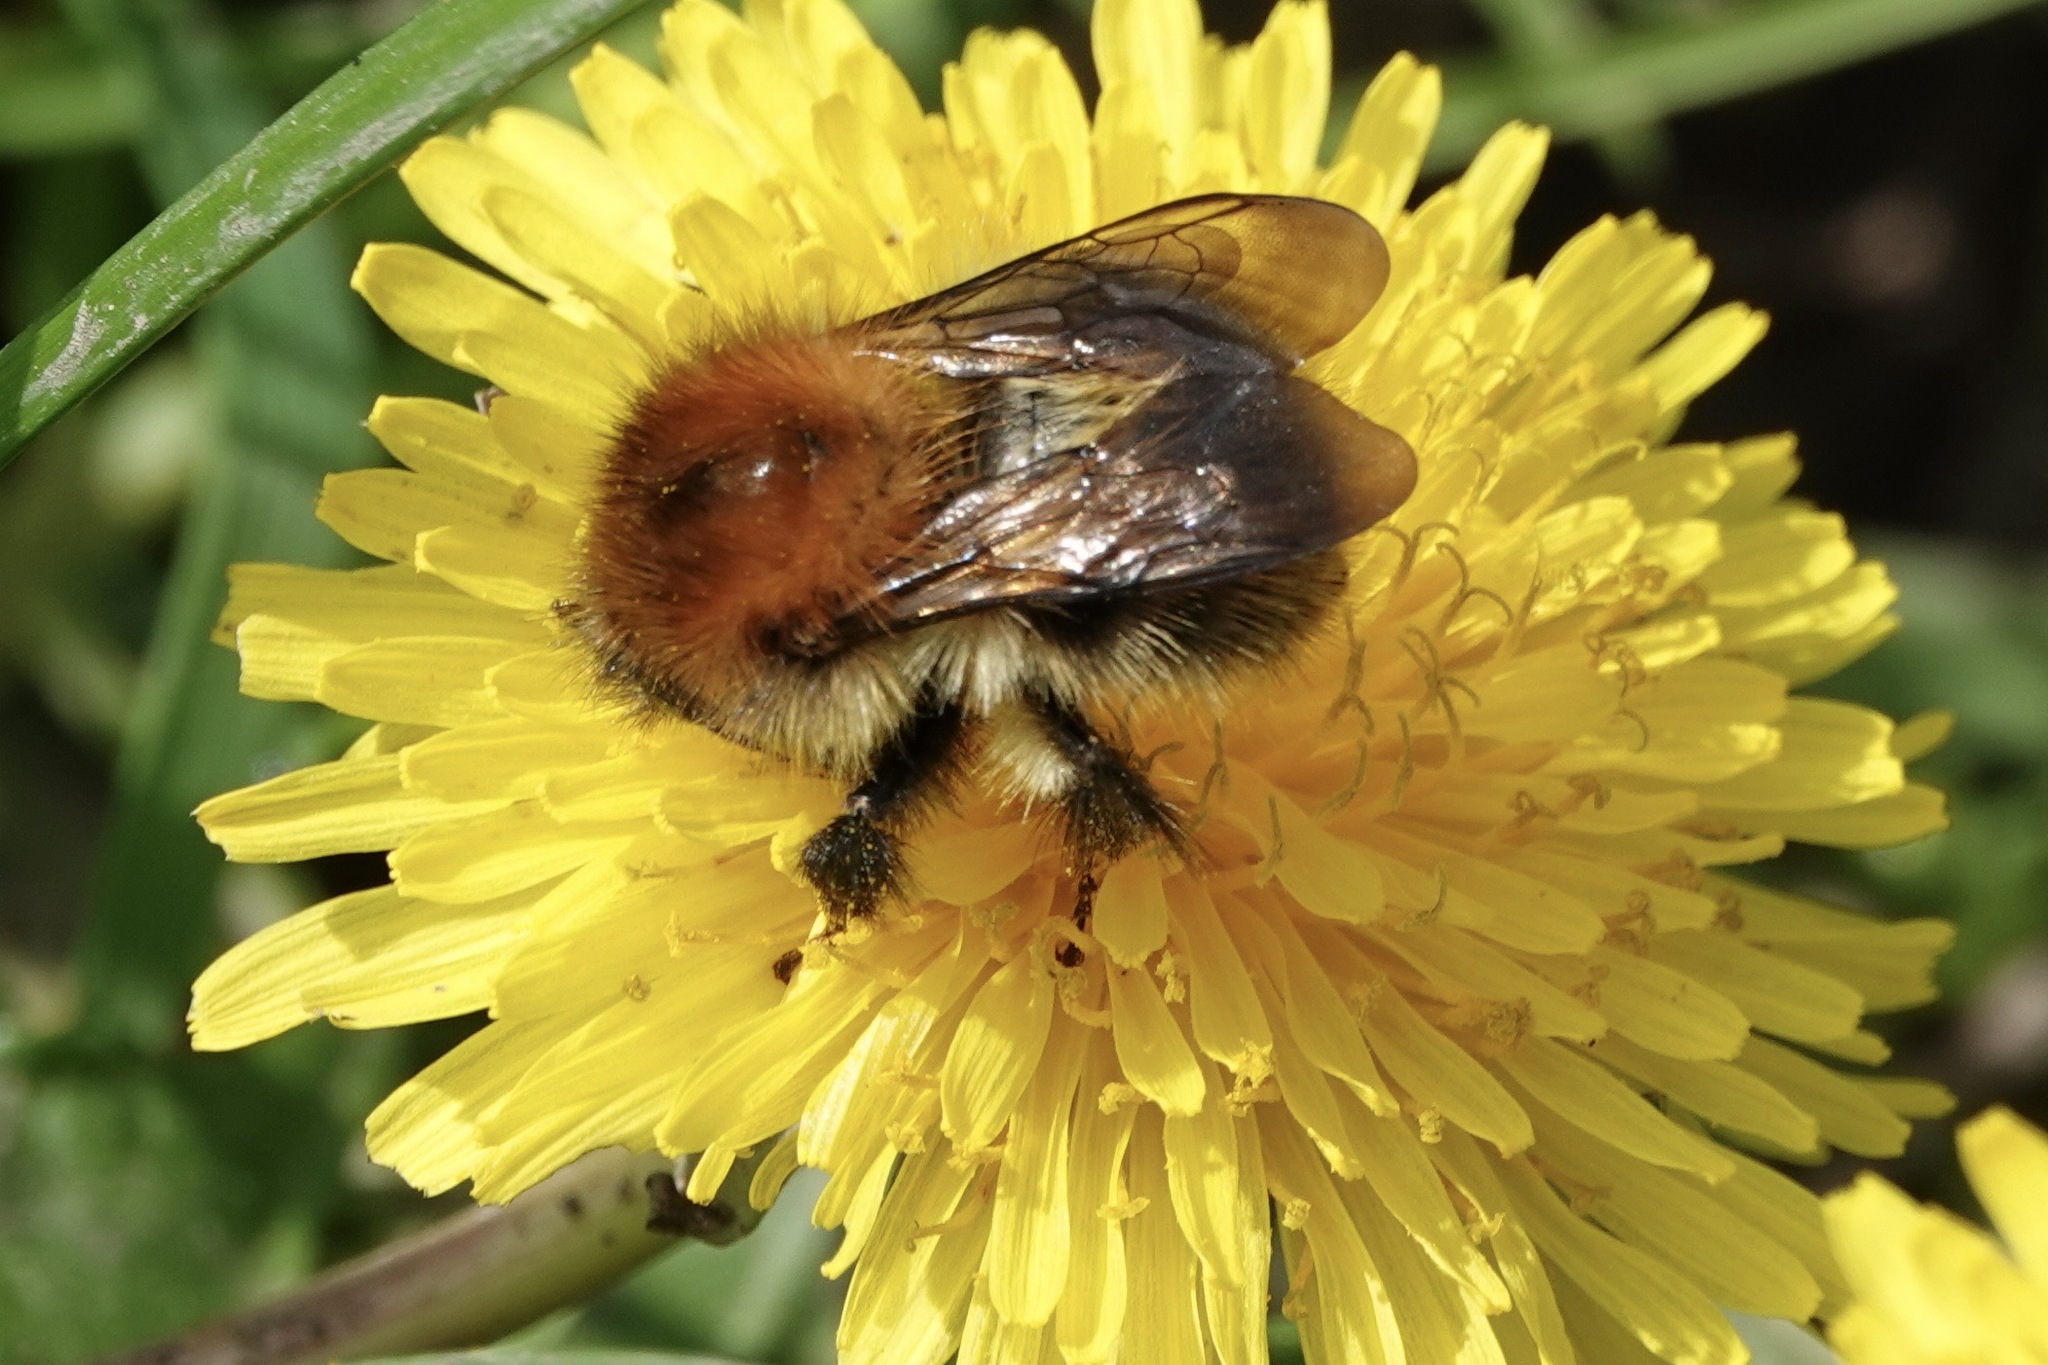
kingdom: Animalia
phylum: Arthropoda
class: Insecta
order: Hymenoptera
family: Apidae
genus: Bombus
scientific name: Bombus pascuorum
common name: Common carder bee
